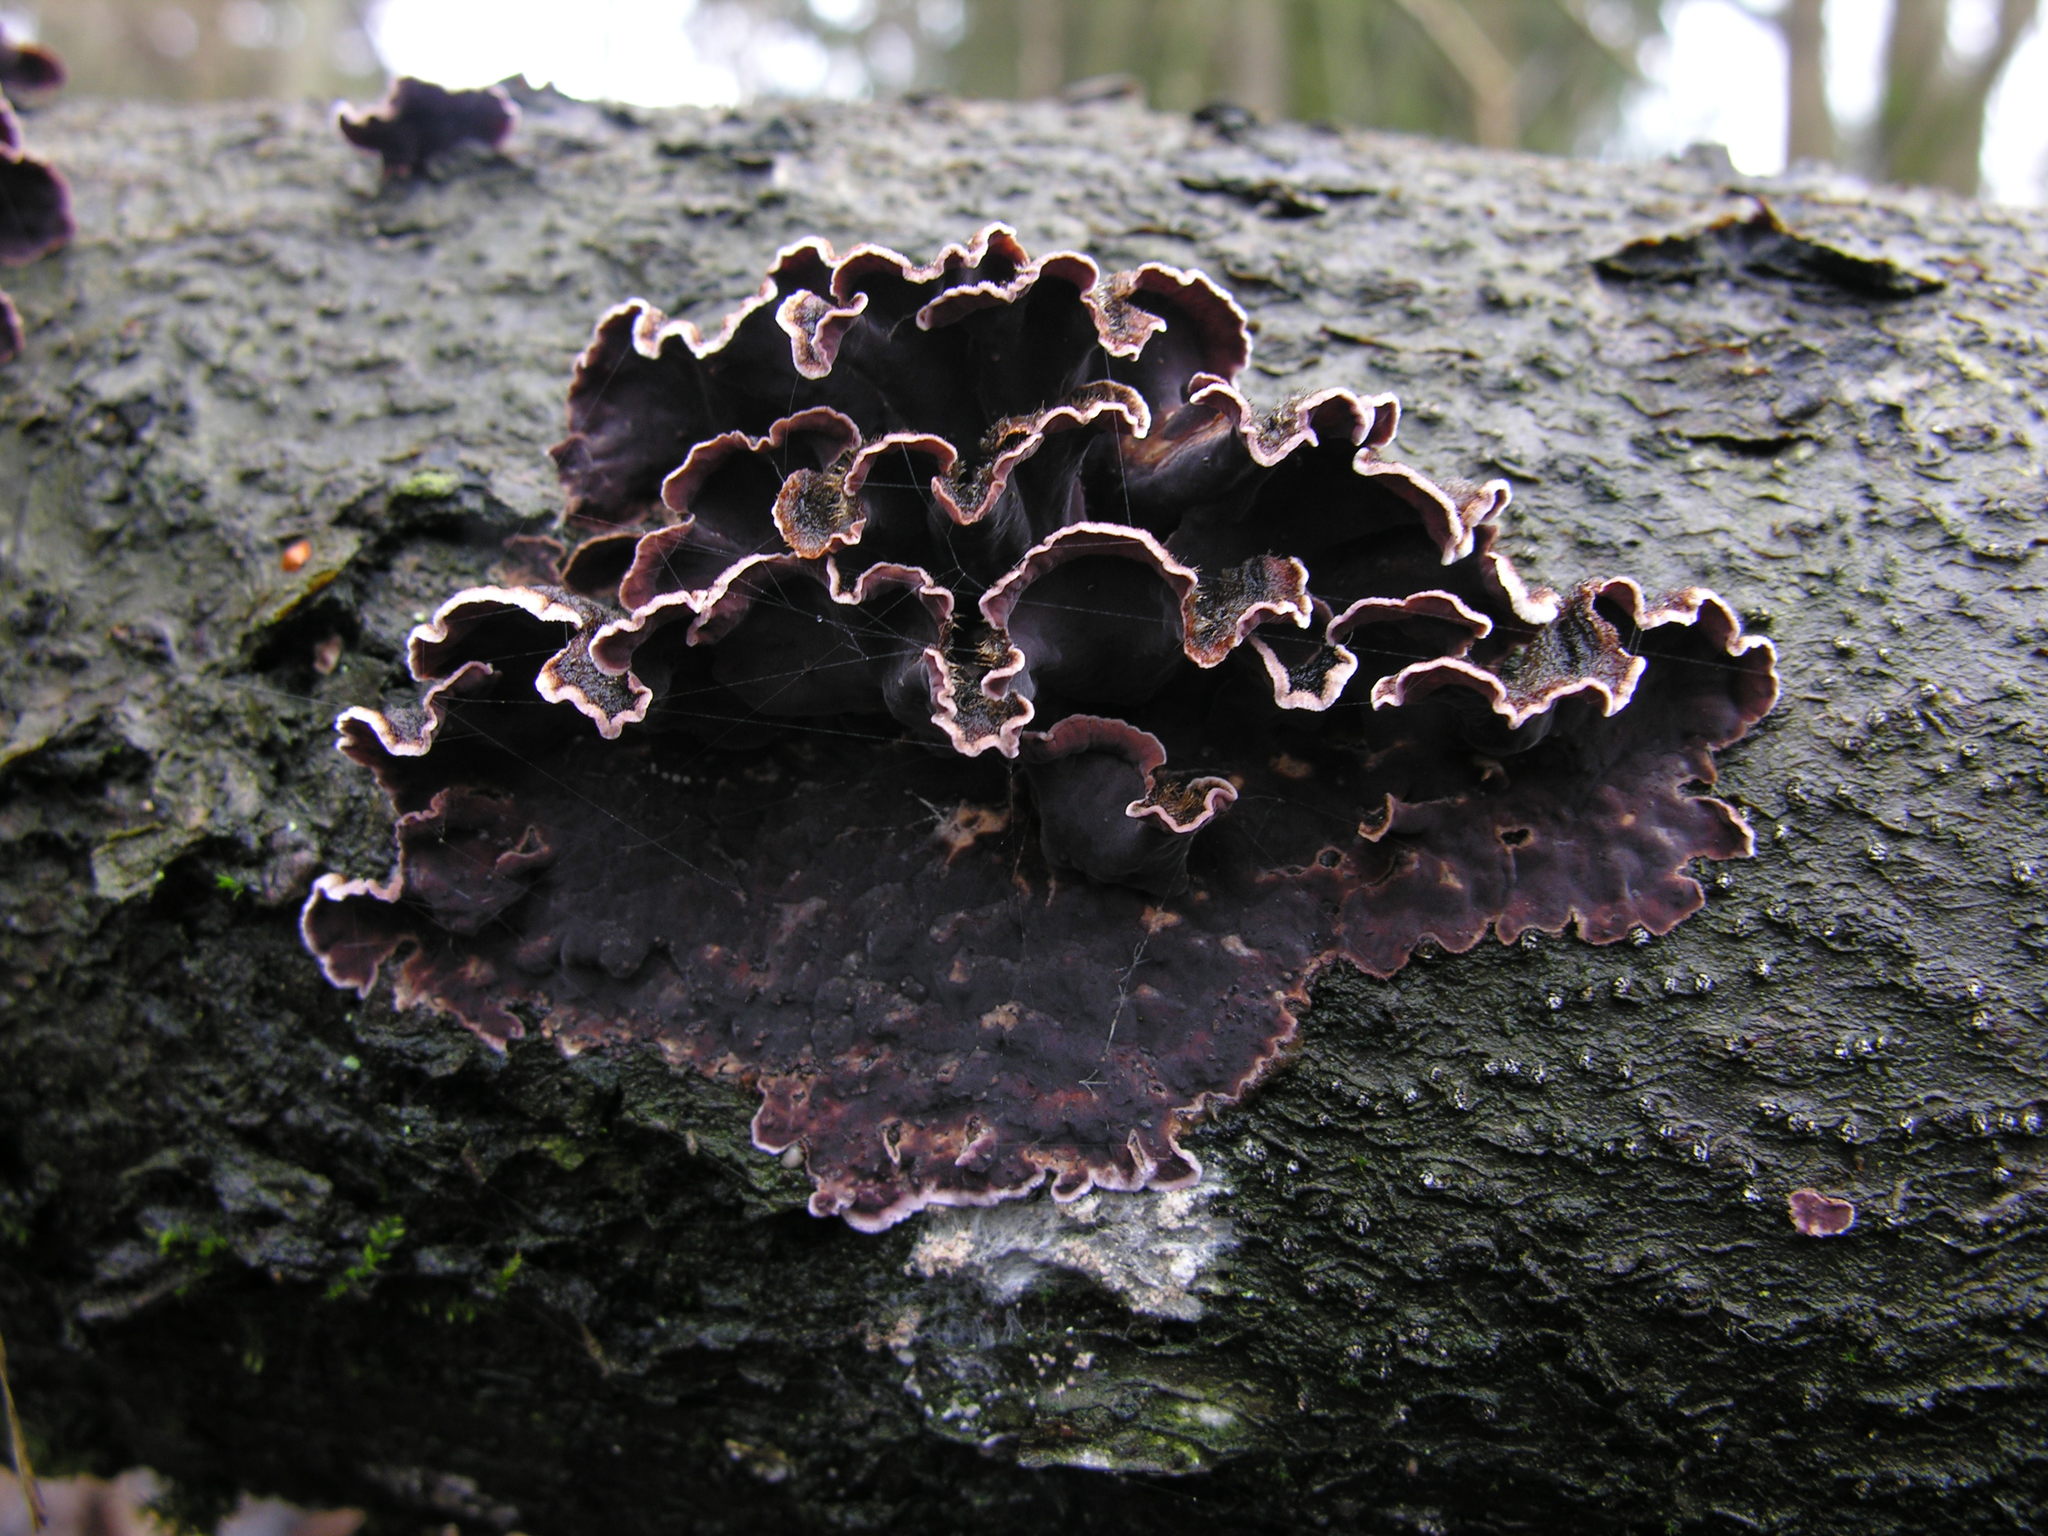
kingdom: Fungi
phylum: Basidiomycota
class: Agaricomycetes
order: Agaricales
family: Cyphellaceae
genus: Chondrostereum
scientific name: Chondrostereum purpureum
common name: Silver leaf disease
